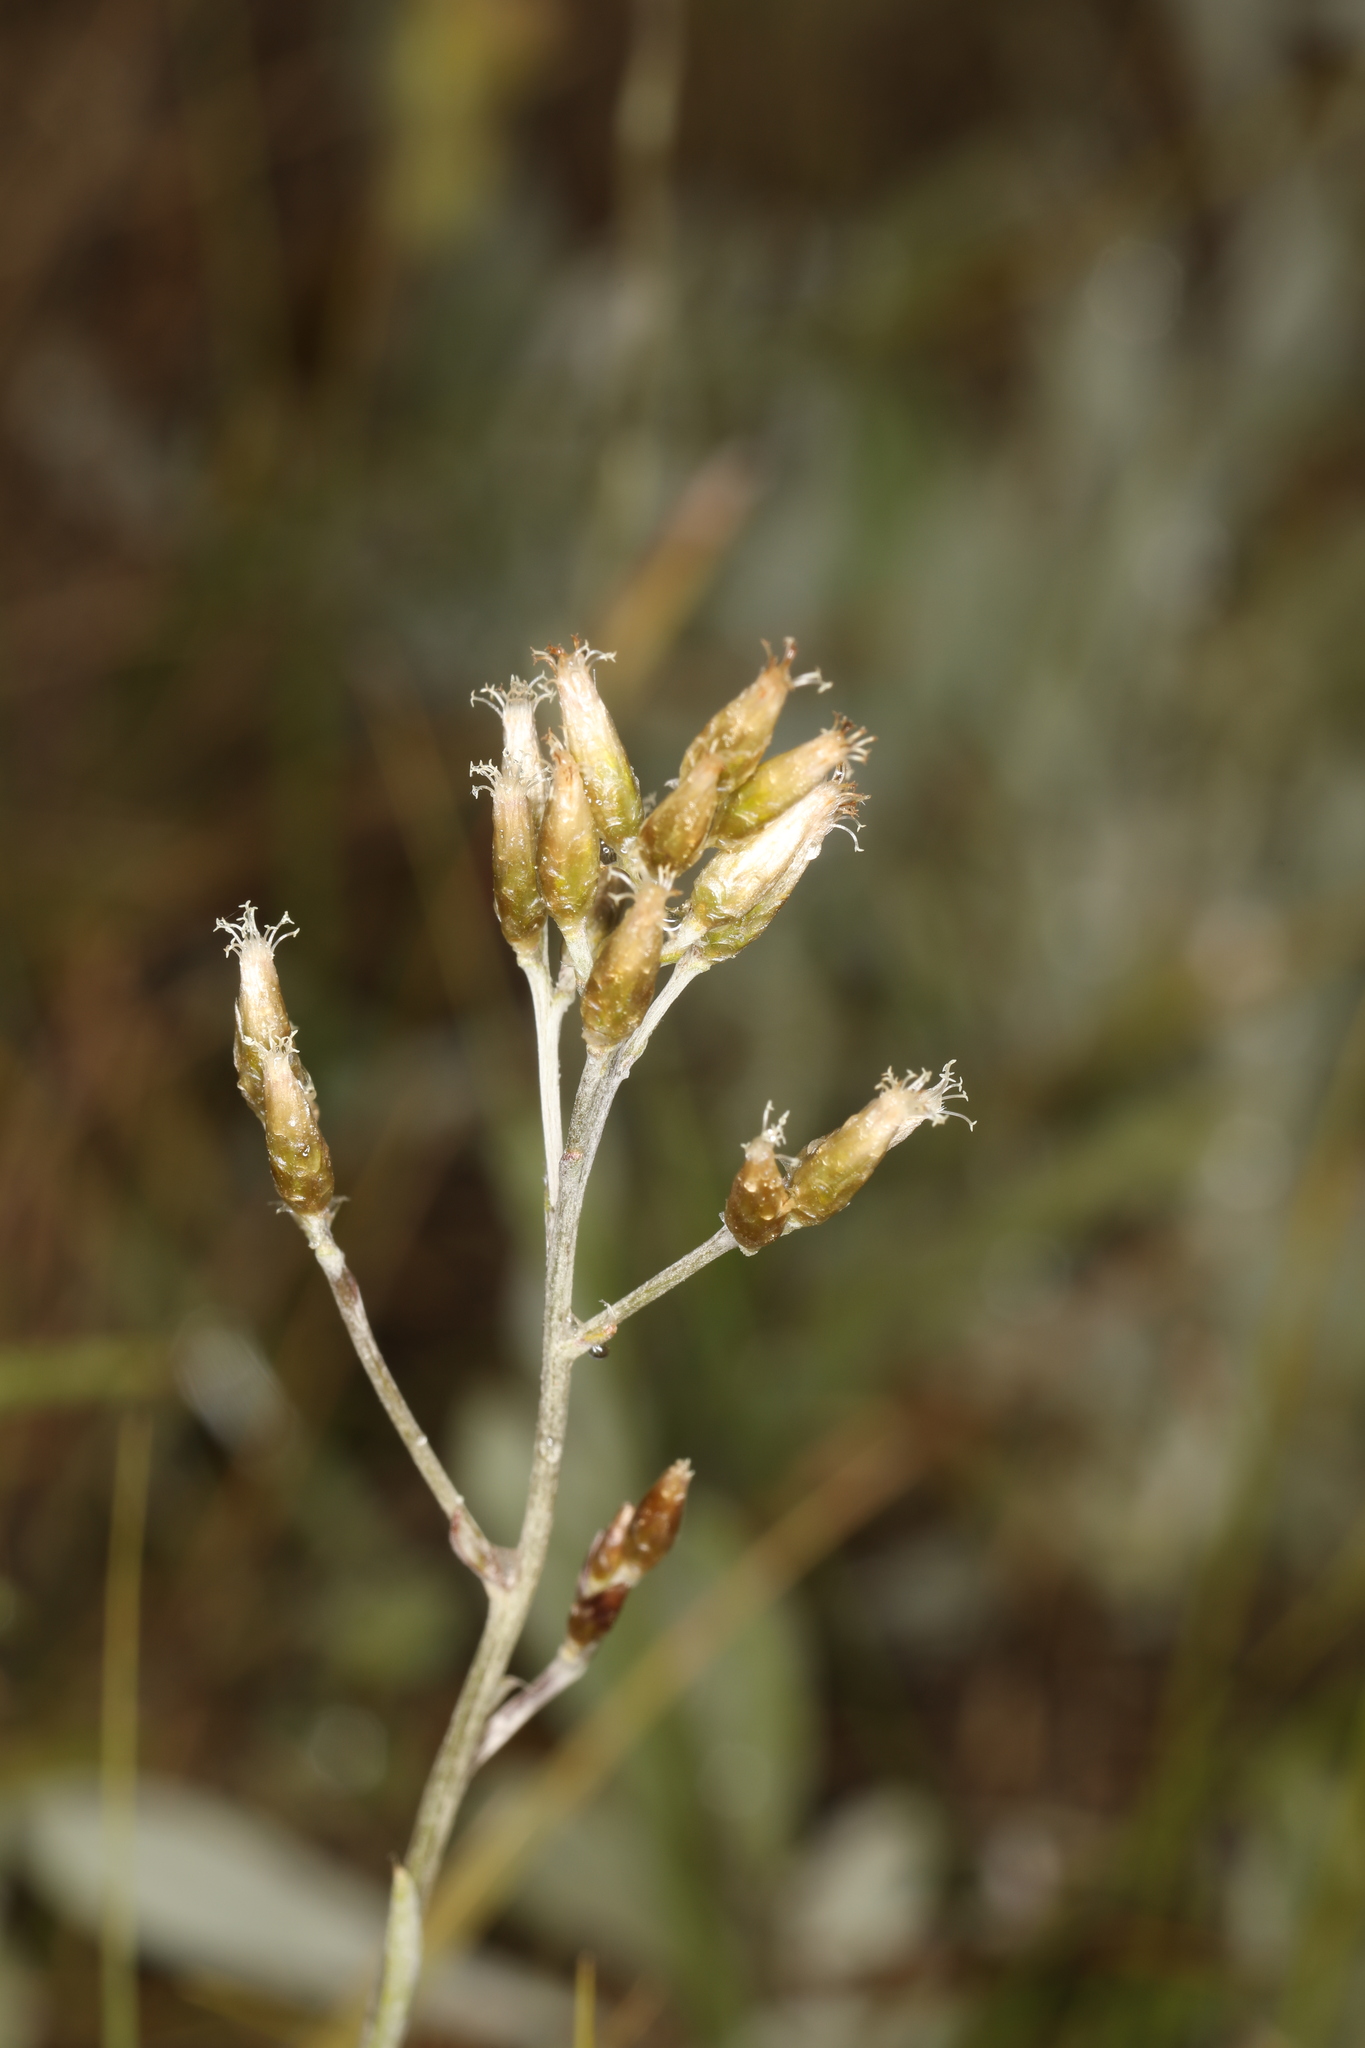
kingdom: Plantae
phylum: Tracheophyta
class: Magnoliopsida
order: Asterales
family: Asteraceae
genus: Antennaria
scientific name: Antennaria luzuloides
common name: Rush pussytoes
